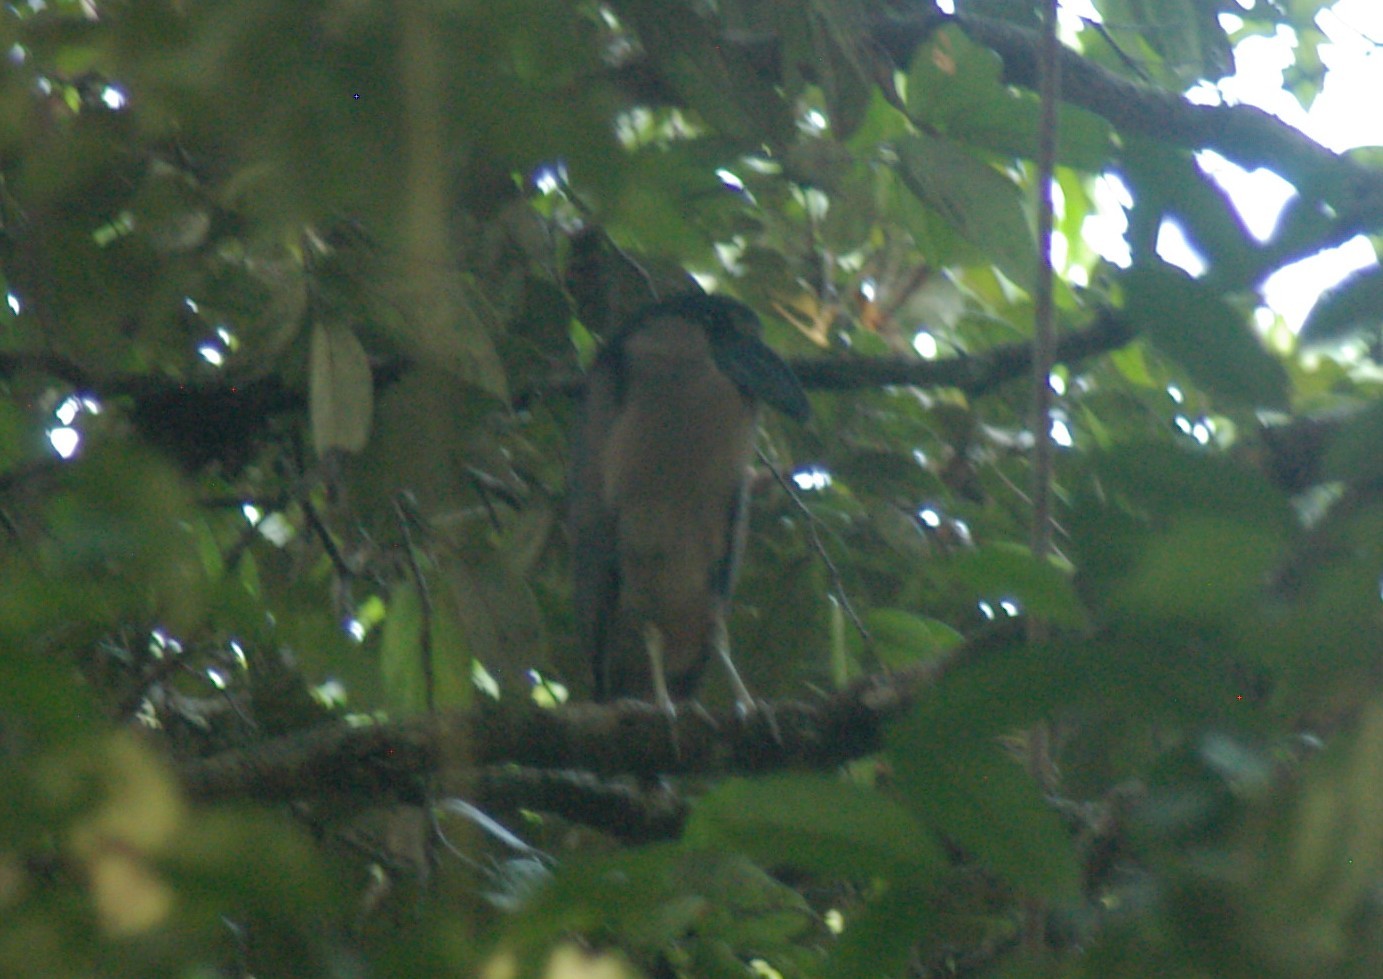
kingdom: Animalia
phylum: Chordata
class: Aves
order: Pelecaniformes
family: Ardeidae
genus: Cochlearius
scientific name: Cochlearius cochlearius
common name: Boat-billed heron
